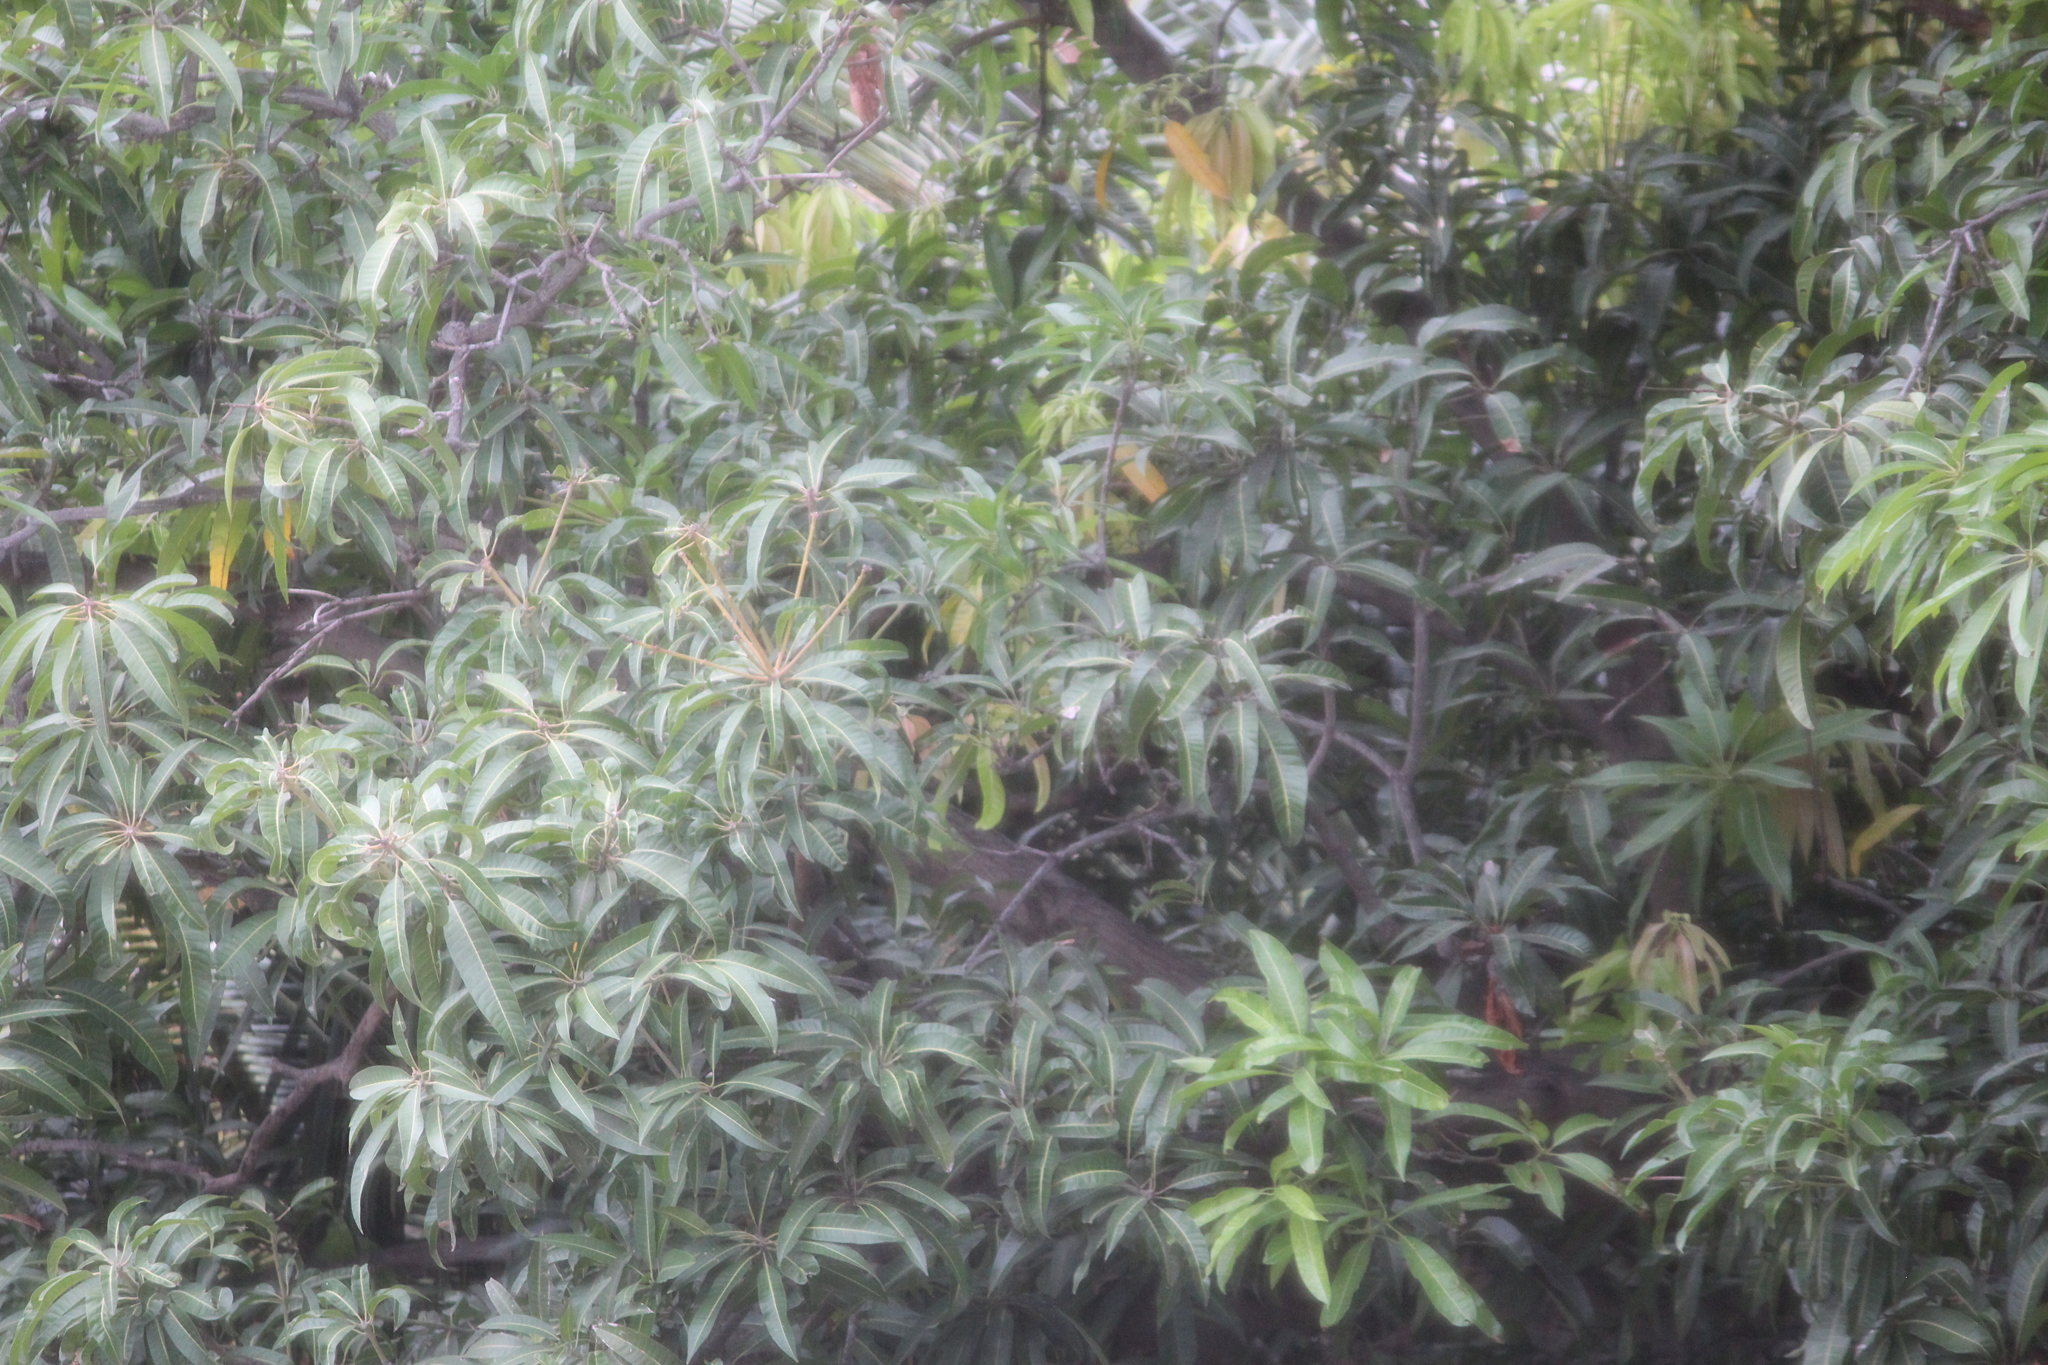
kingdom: Plantae
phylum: Tracheophyta
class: Magnoliopsida
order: Sapindales
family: Anacardiaceae
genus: Mangifera
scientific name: Mangifera indica
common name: Mango
